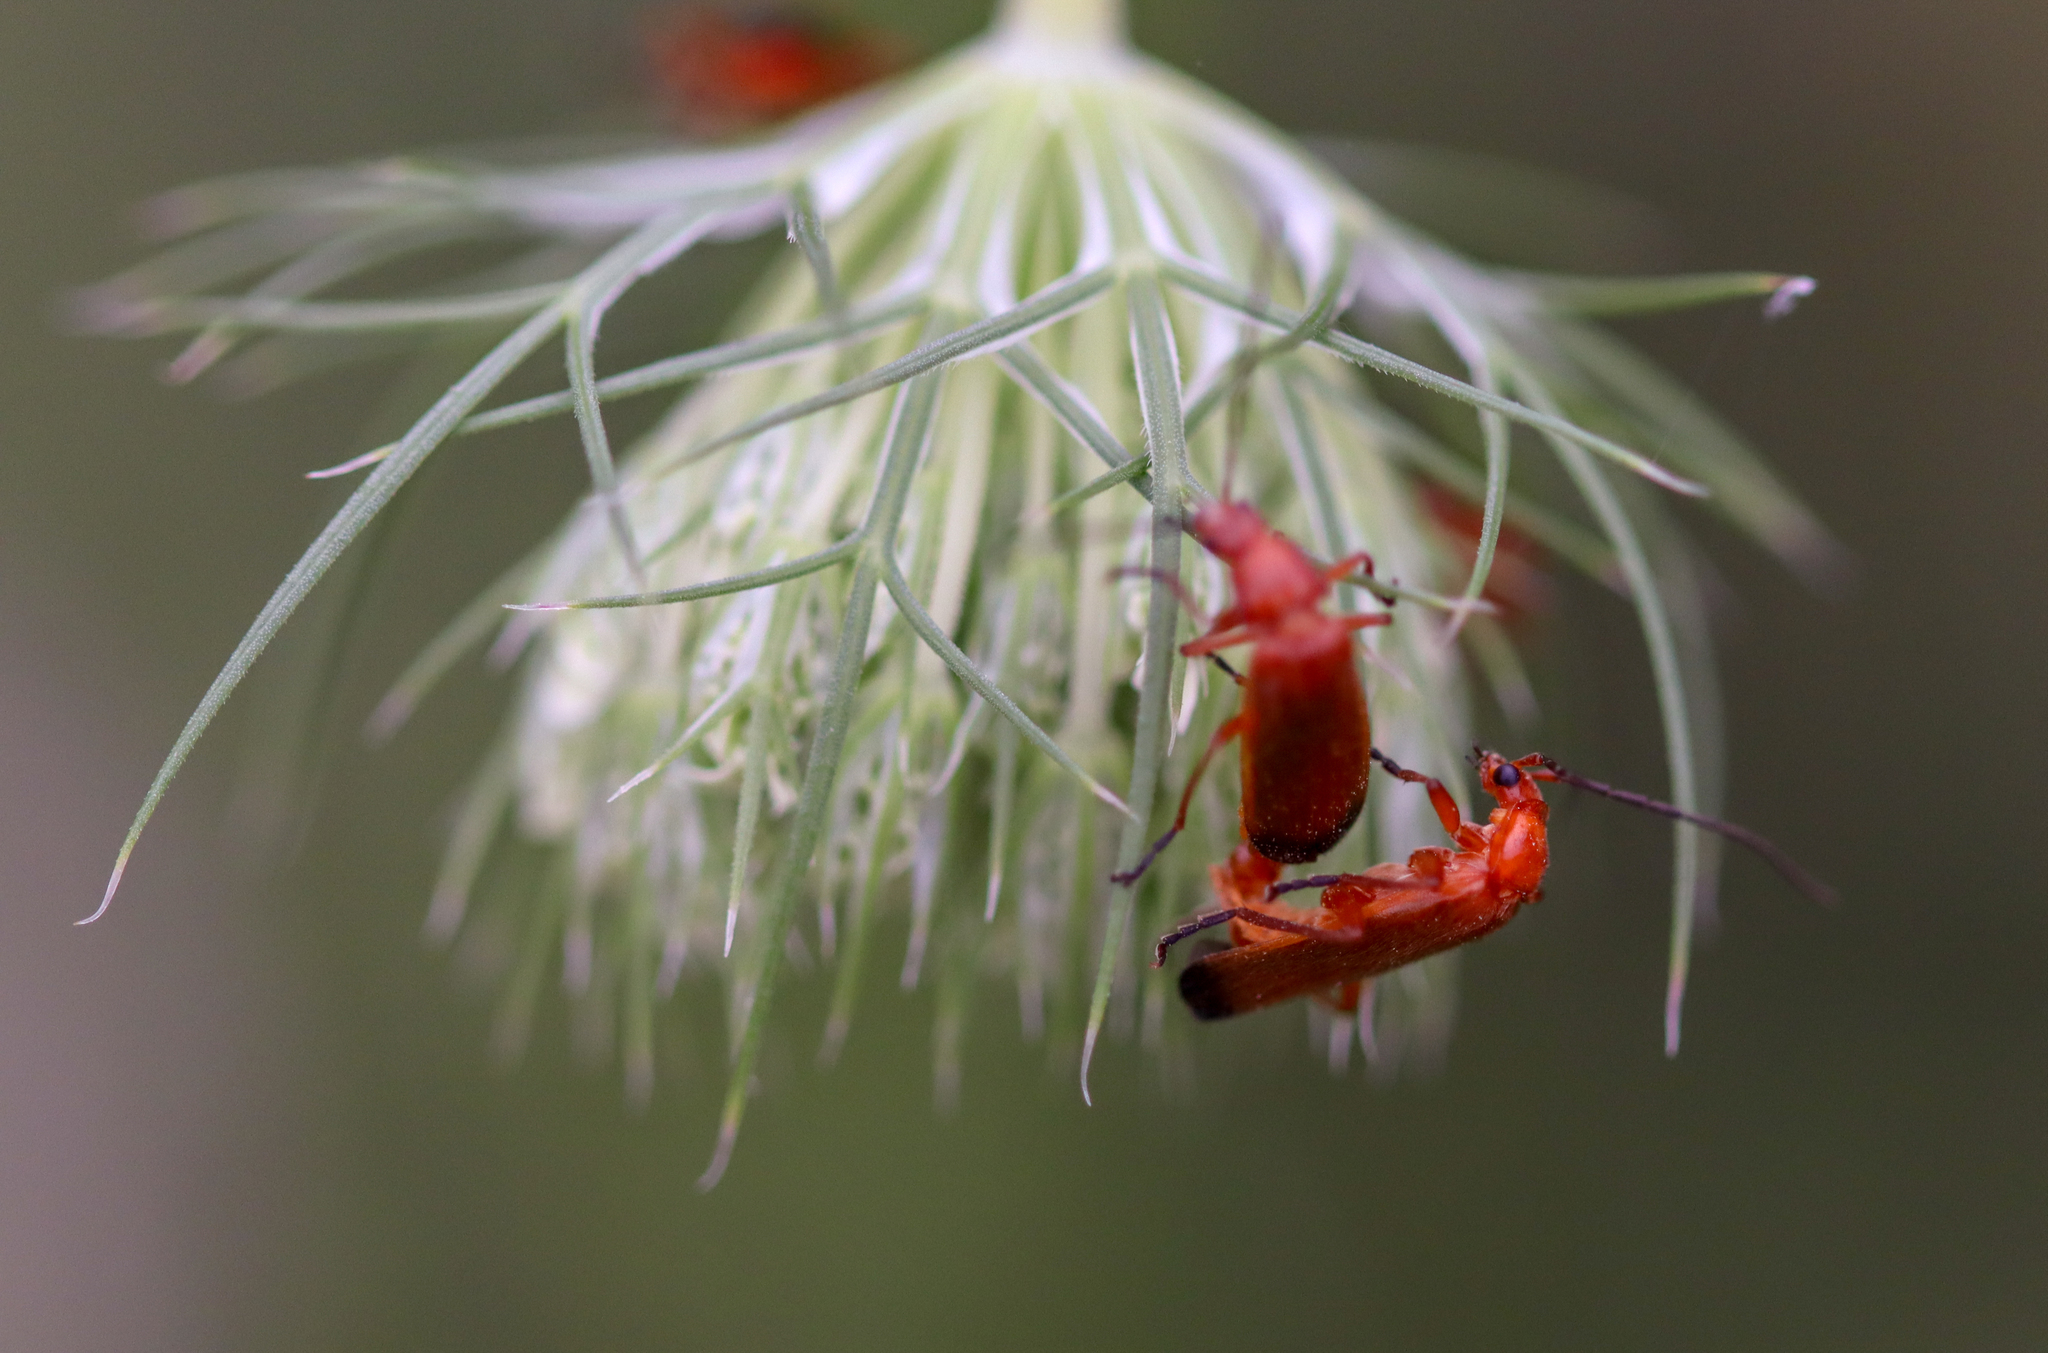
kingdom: Animalia
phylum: Arthropoda
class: Insecta
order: Coleoptera
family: Cantharidae
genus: Rhagonycha
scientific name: Rhagonycha fulva
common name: Common red soldier beetle
